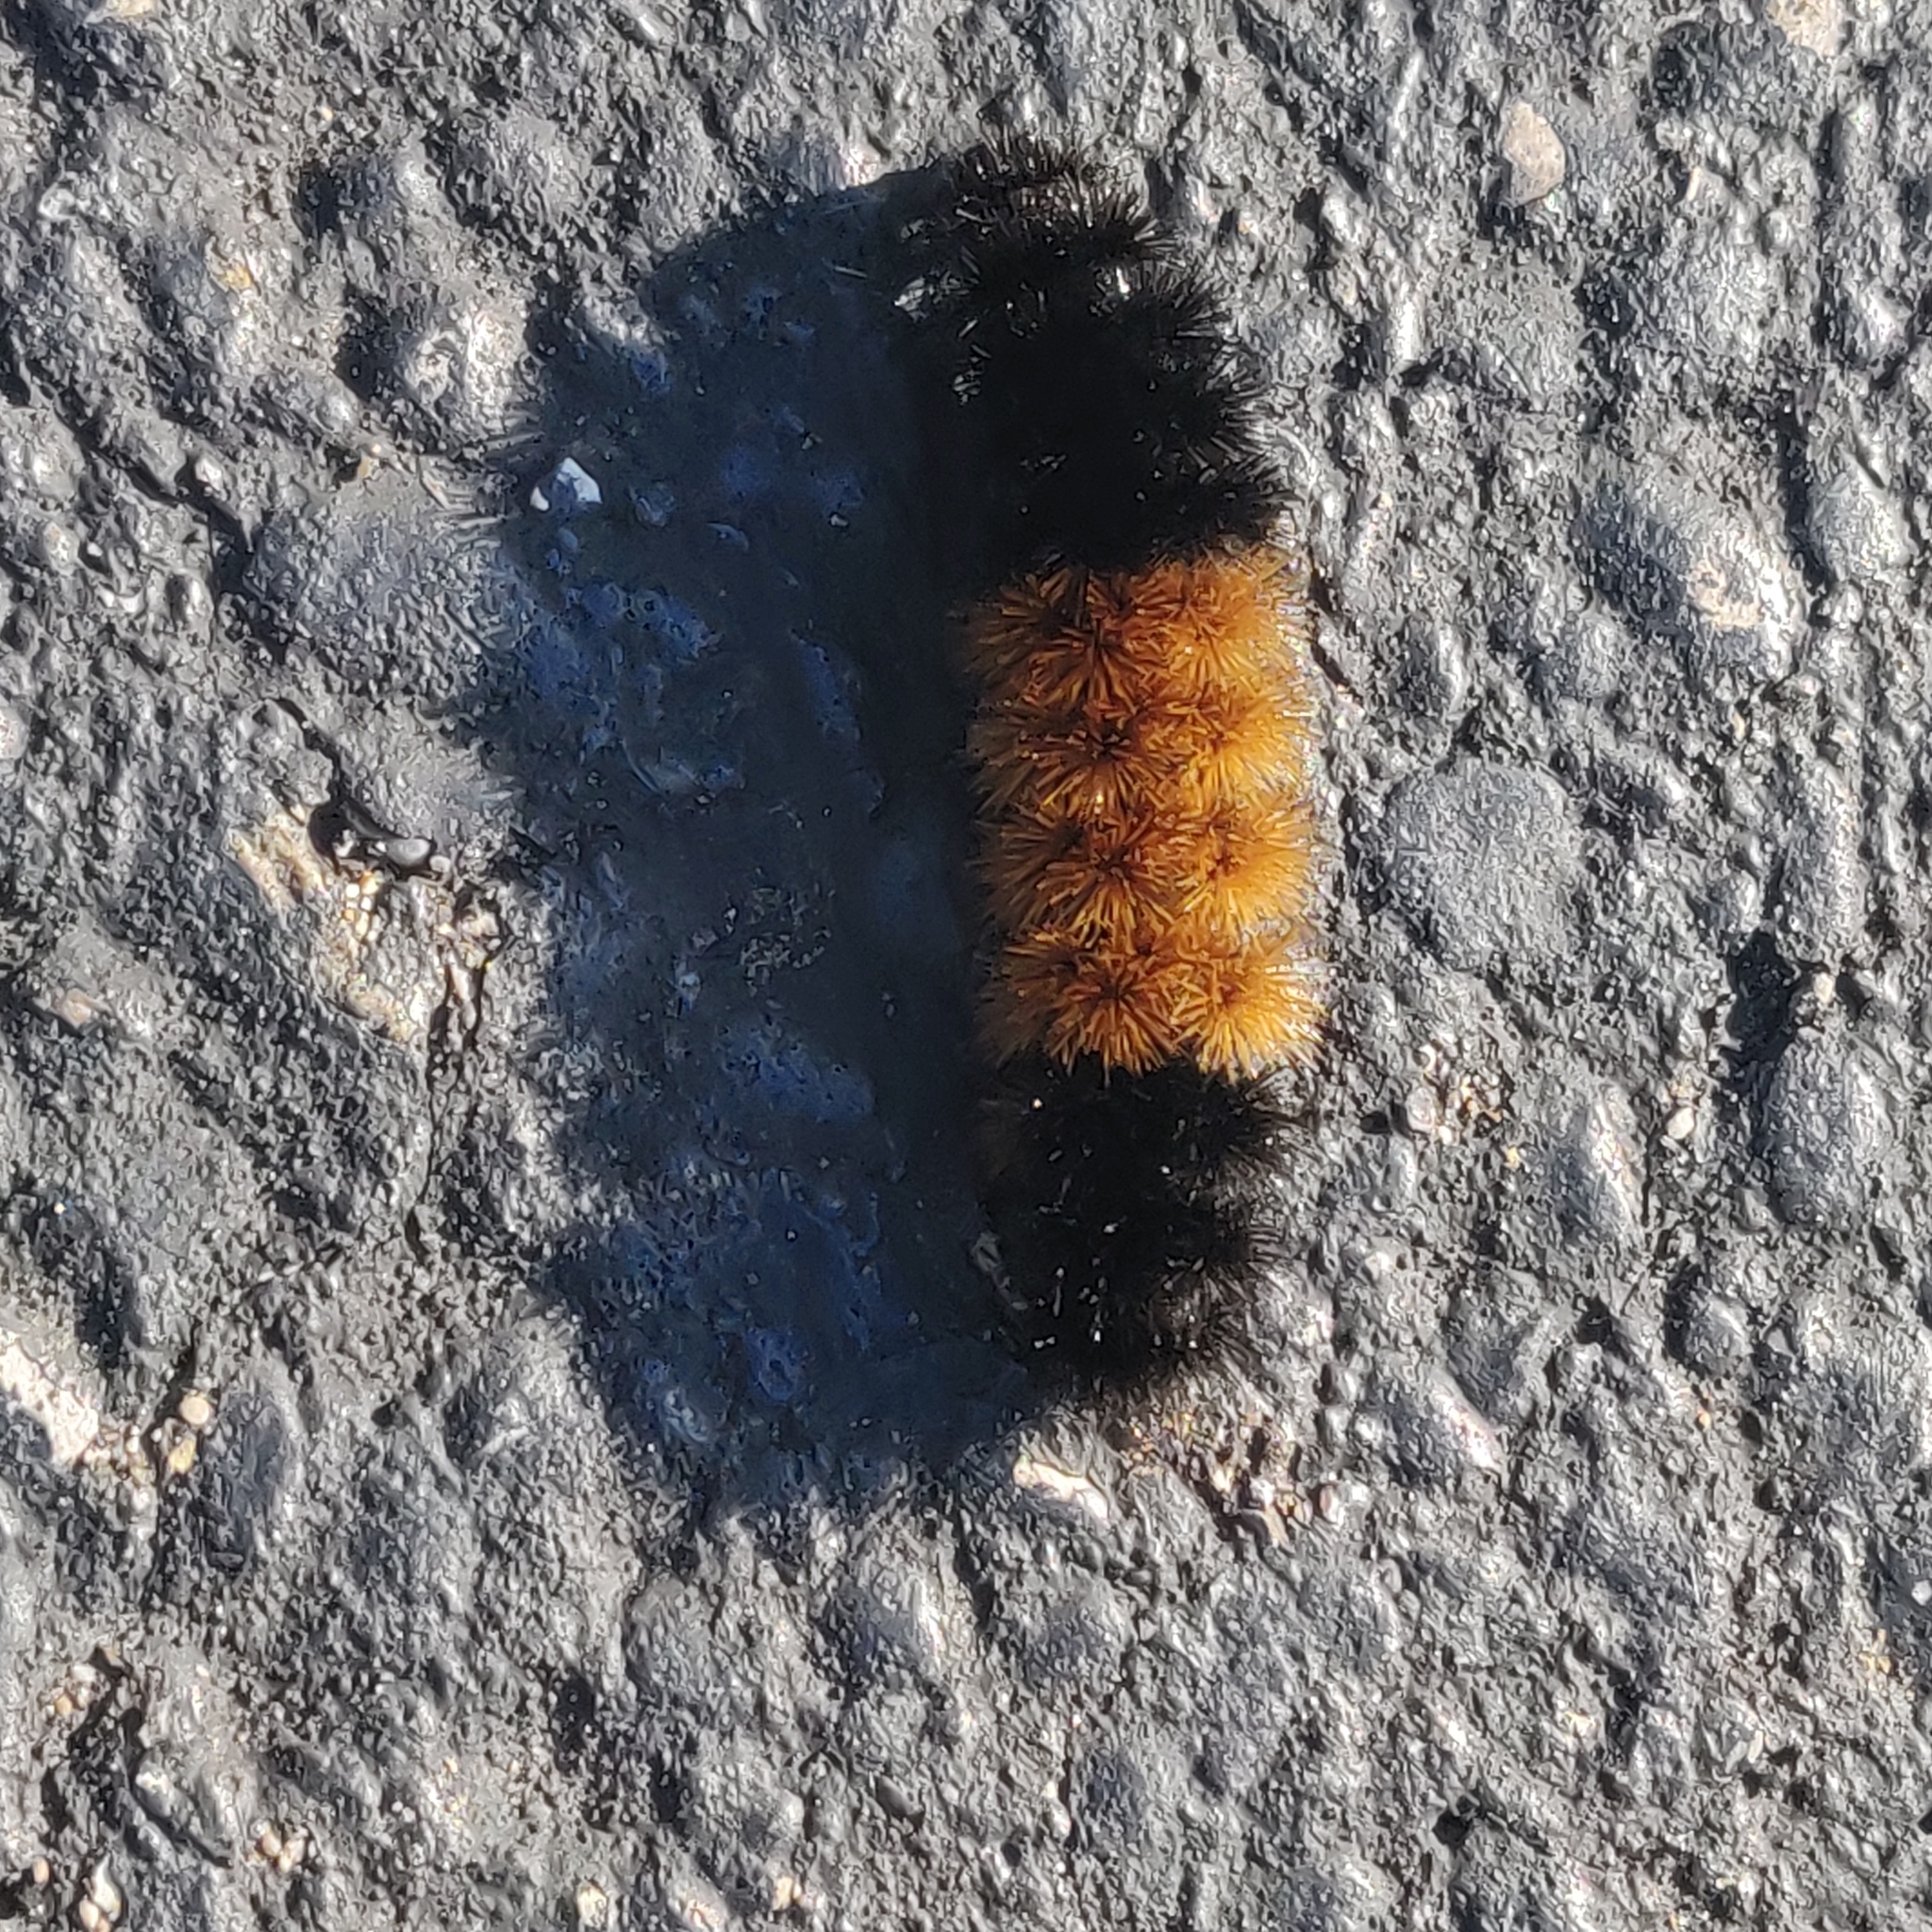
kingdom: Animalia
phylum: Arthropoda
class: Insecta
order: Lepidoptera
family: Erebidae
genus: Pyrrharctia
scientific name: Pyrrharctia isabella
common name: Isabella tiger moth
